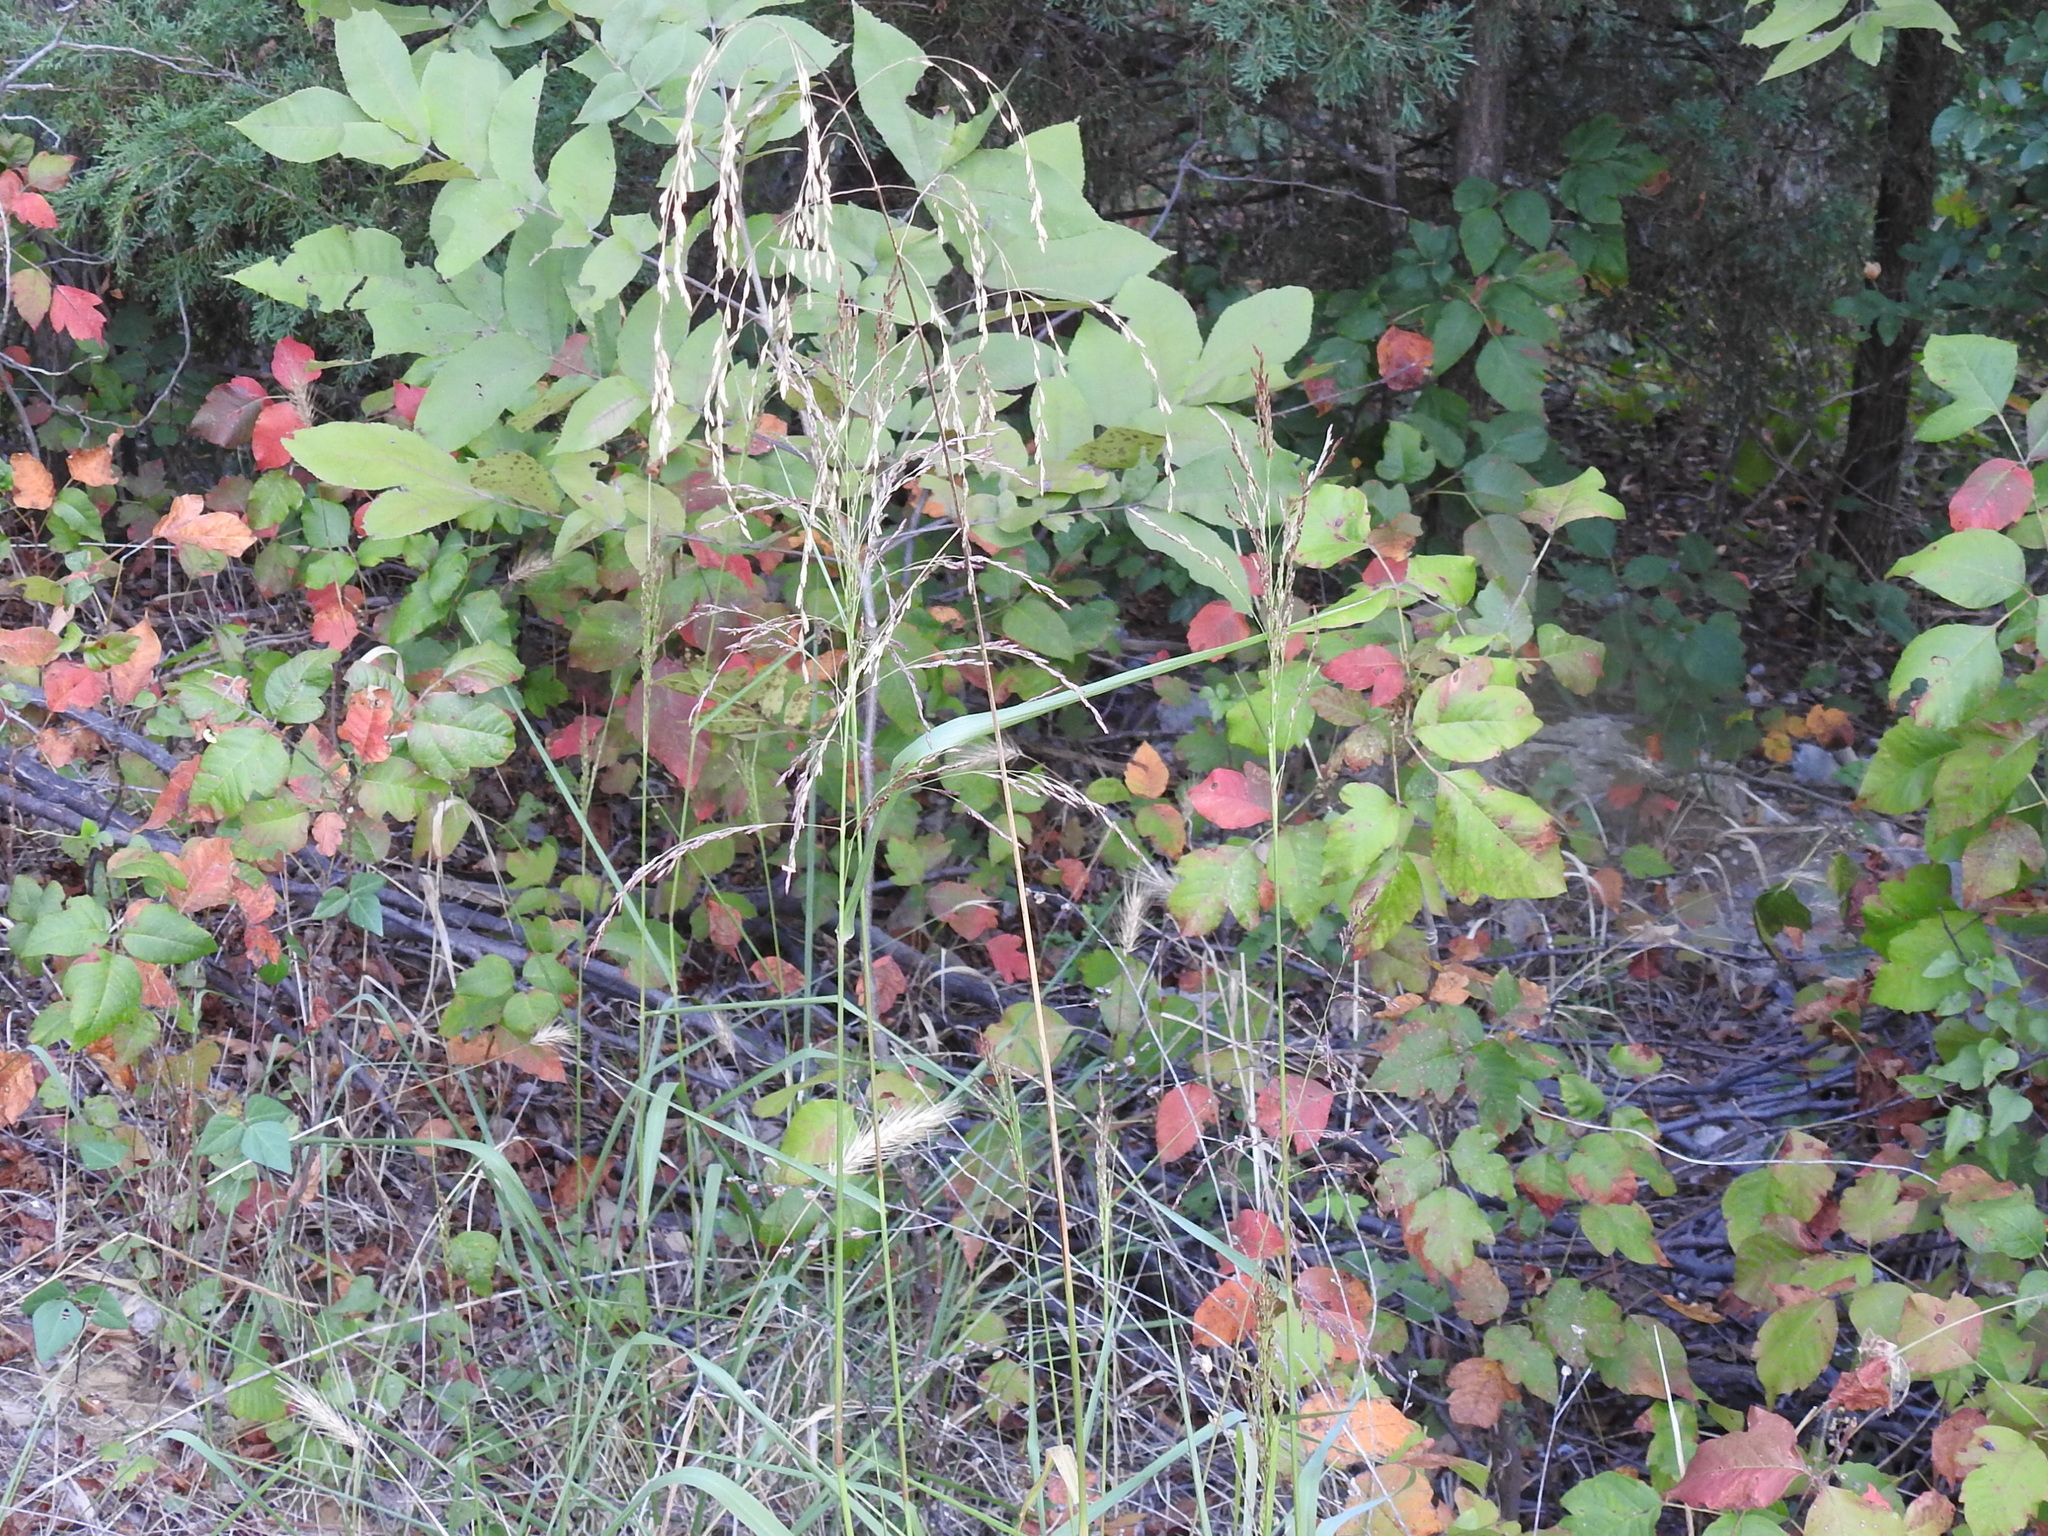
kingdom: Plantae
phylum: Tracheophyta
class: Liliopsida
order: Poales
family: Poaceae
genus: Tridens
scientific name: Tridens flavus
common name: Purpletop
